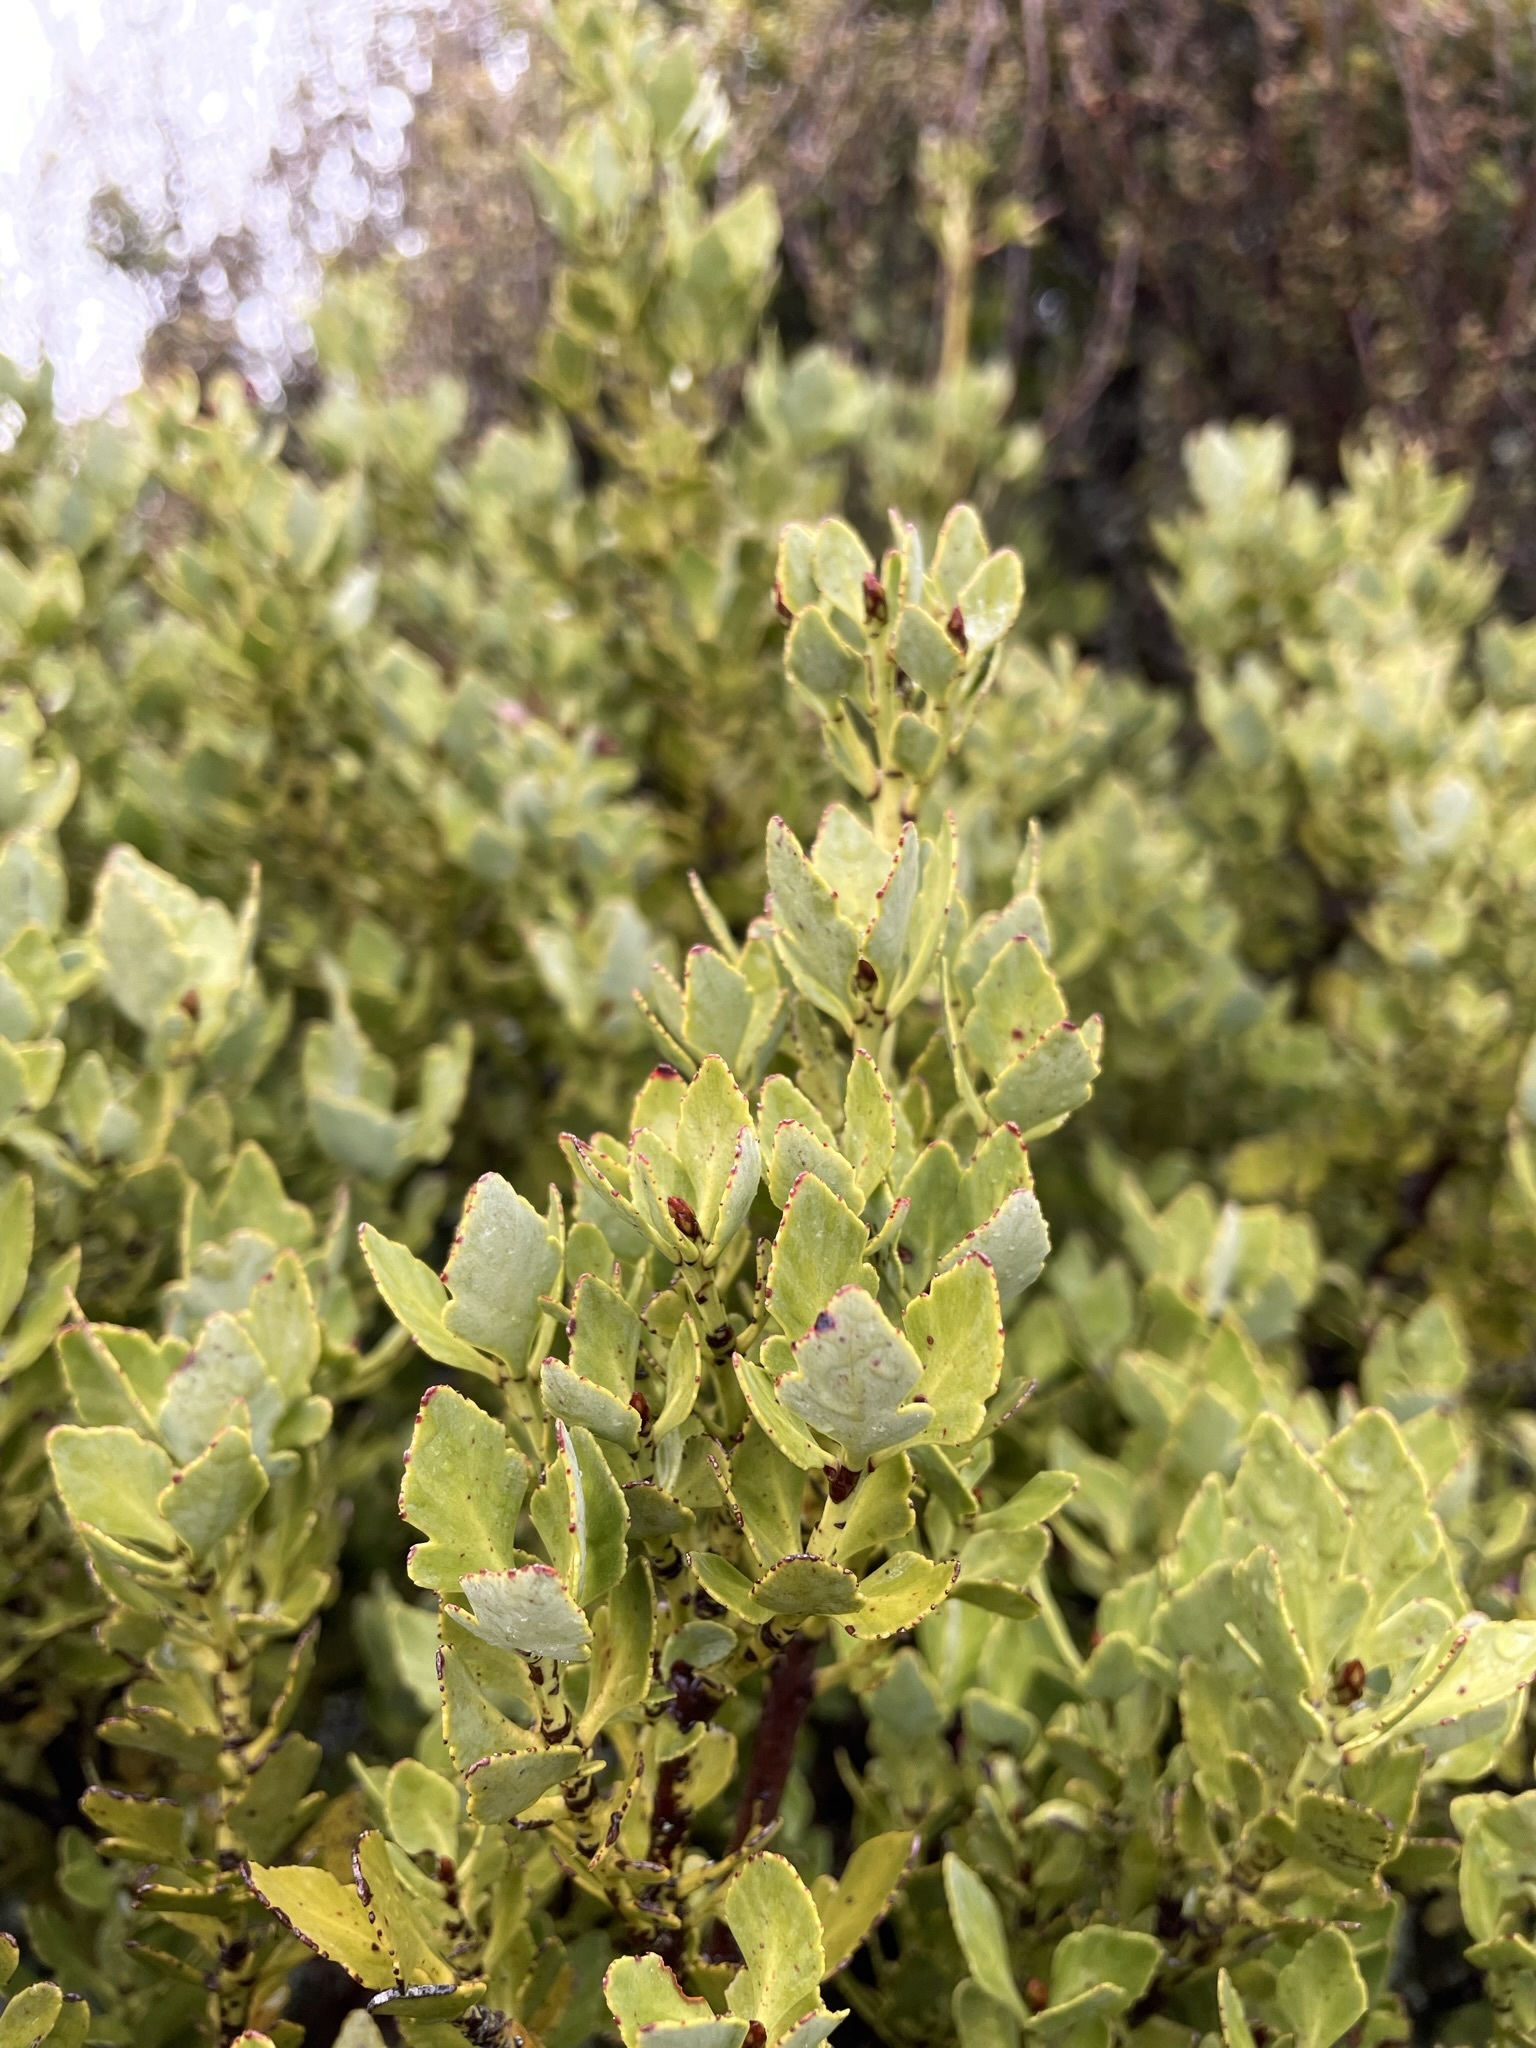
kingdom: Plantae
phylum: Tracheophyta
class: Pinopsida
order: Pinales
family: Phyllocladaceae
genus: Phyllocladus
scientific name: Phyllocladus trichomanoides
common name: Celery pine
